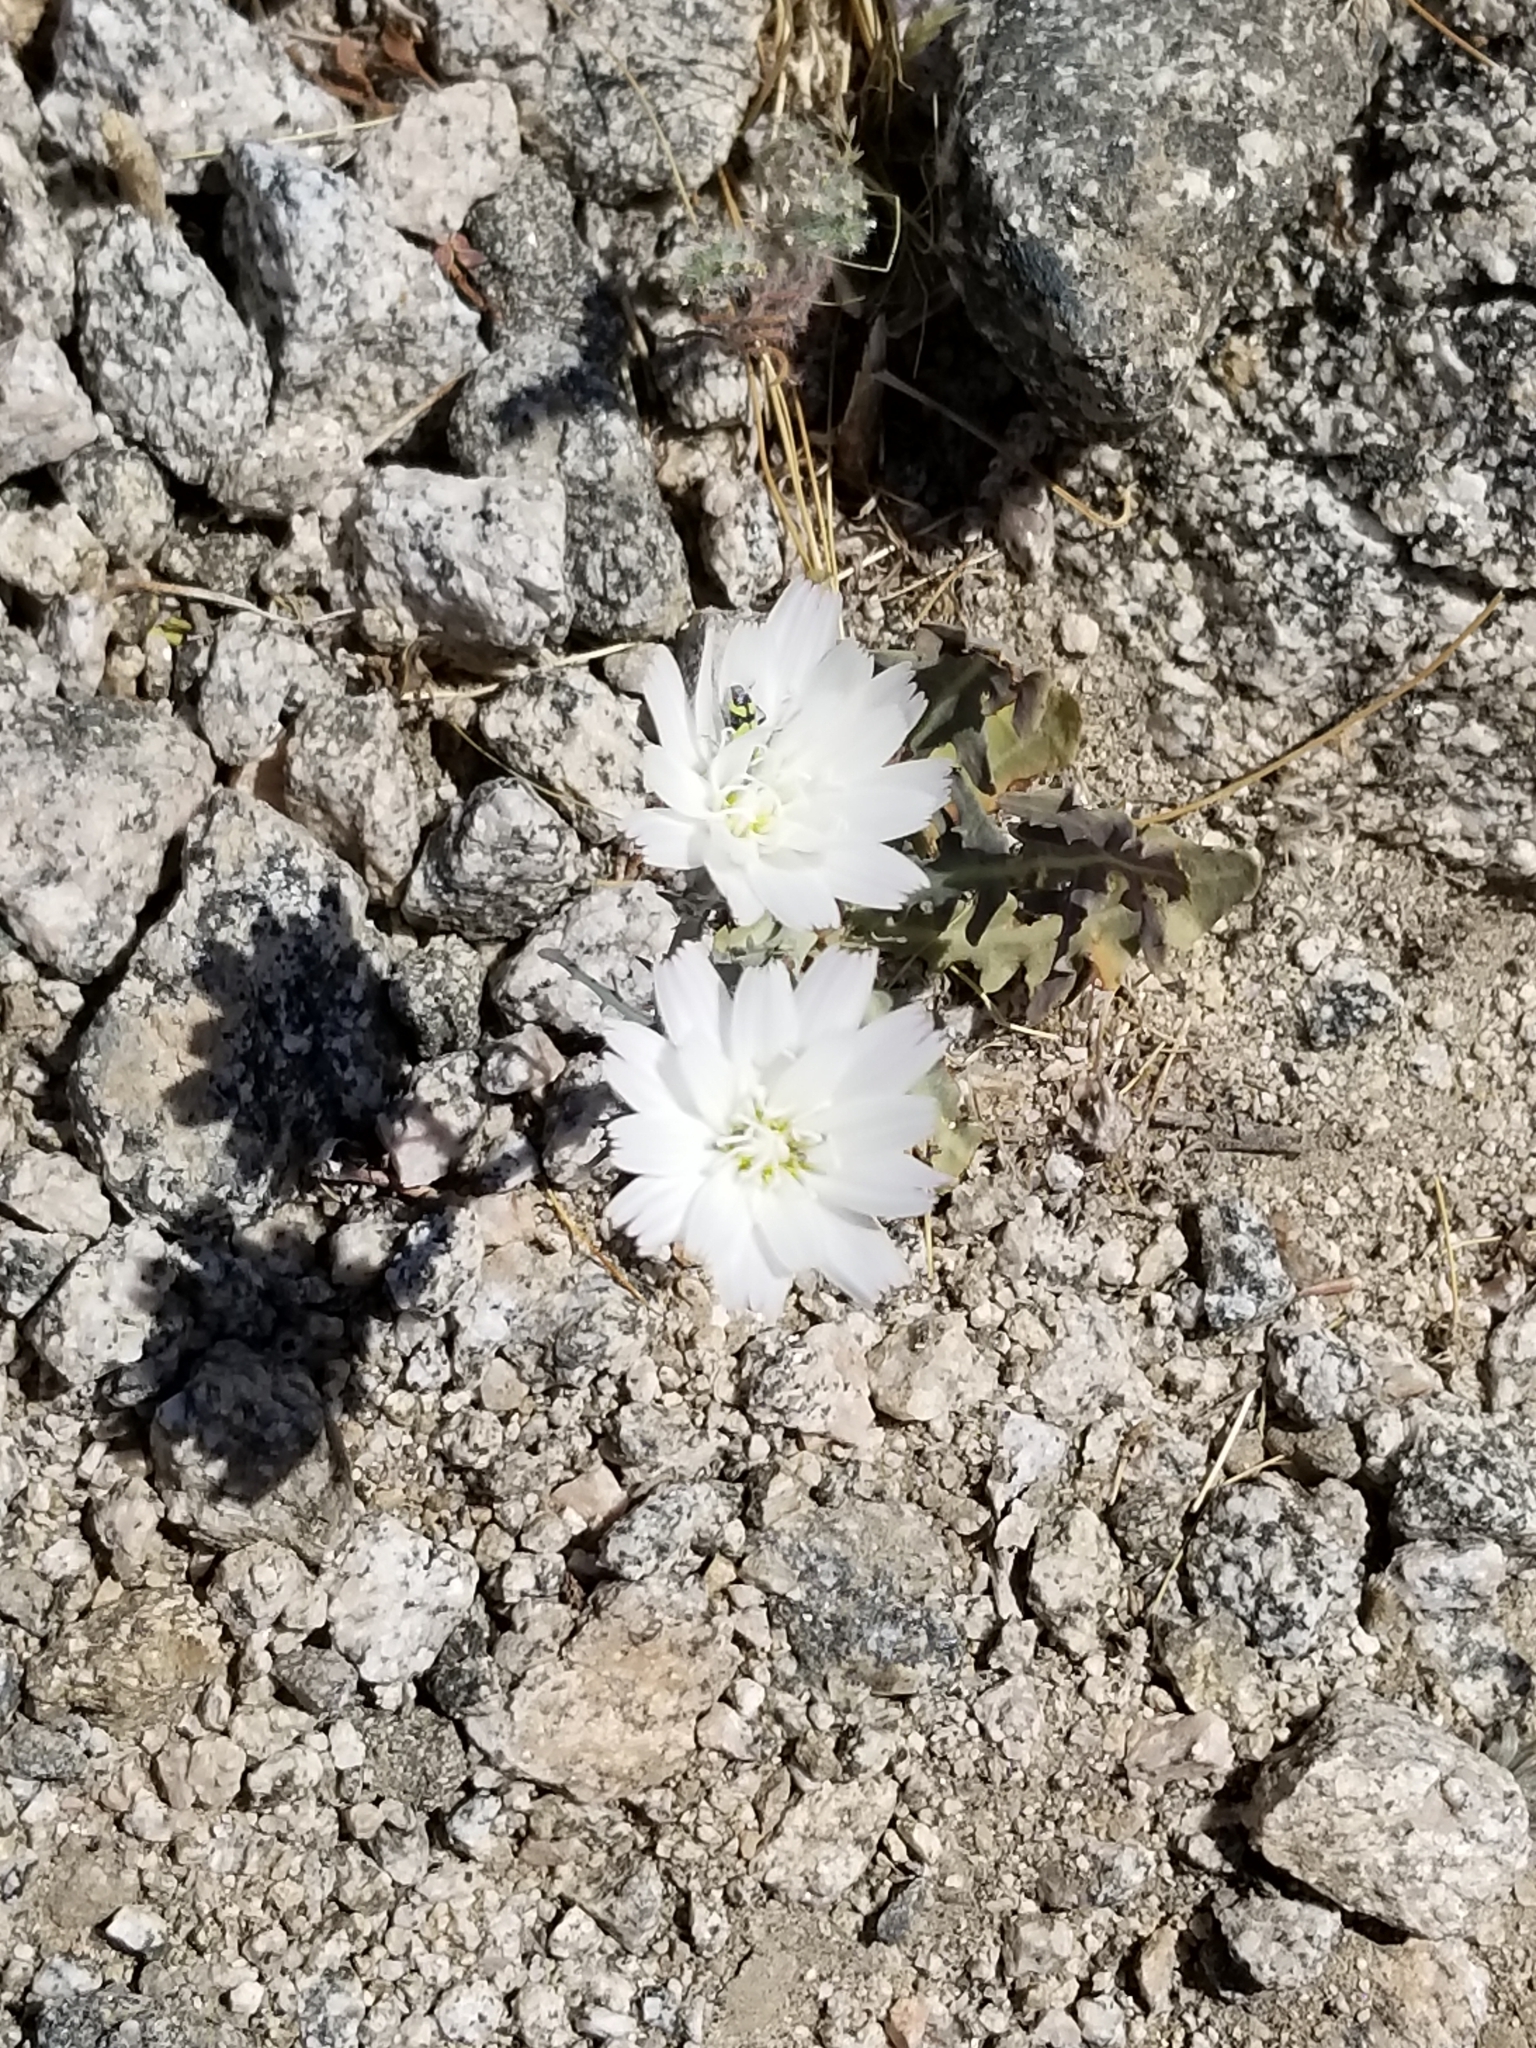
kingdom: Plantae
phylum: Tracheophyta
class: Magnoliopsida
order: Asterales
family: Asteraceae
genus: Rafinesquia
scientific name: Rafinesquia neomexicana
